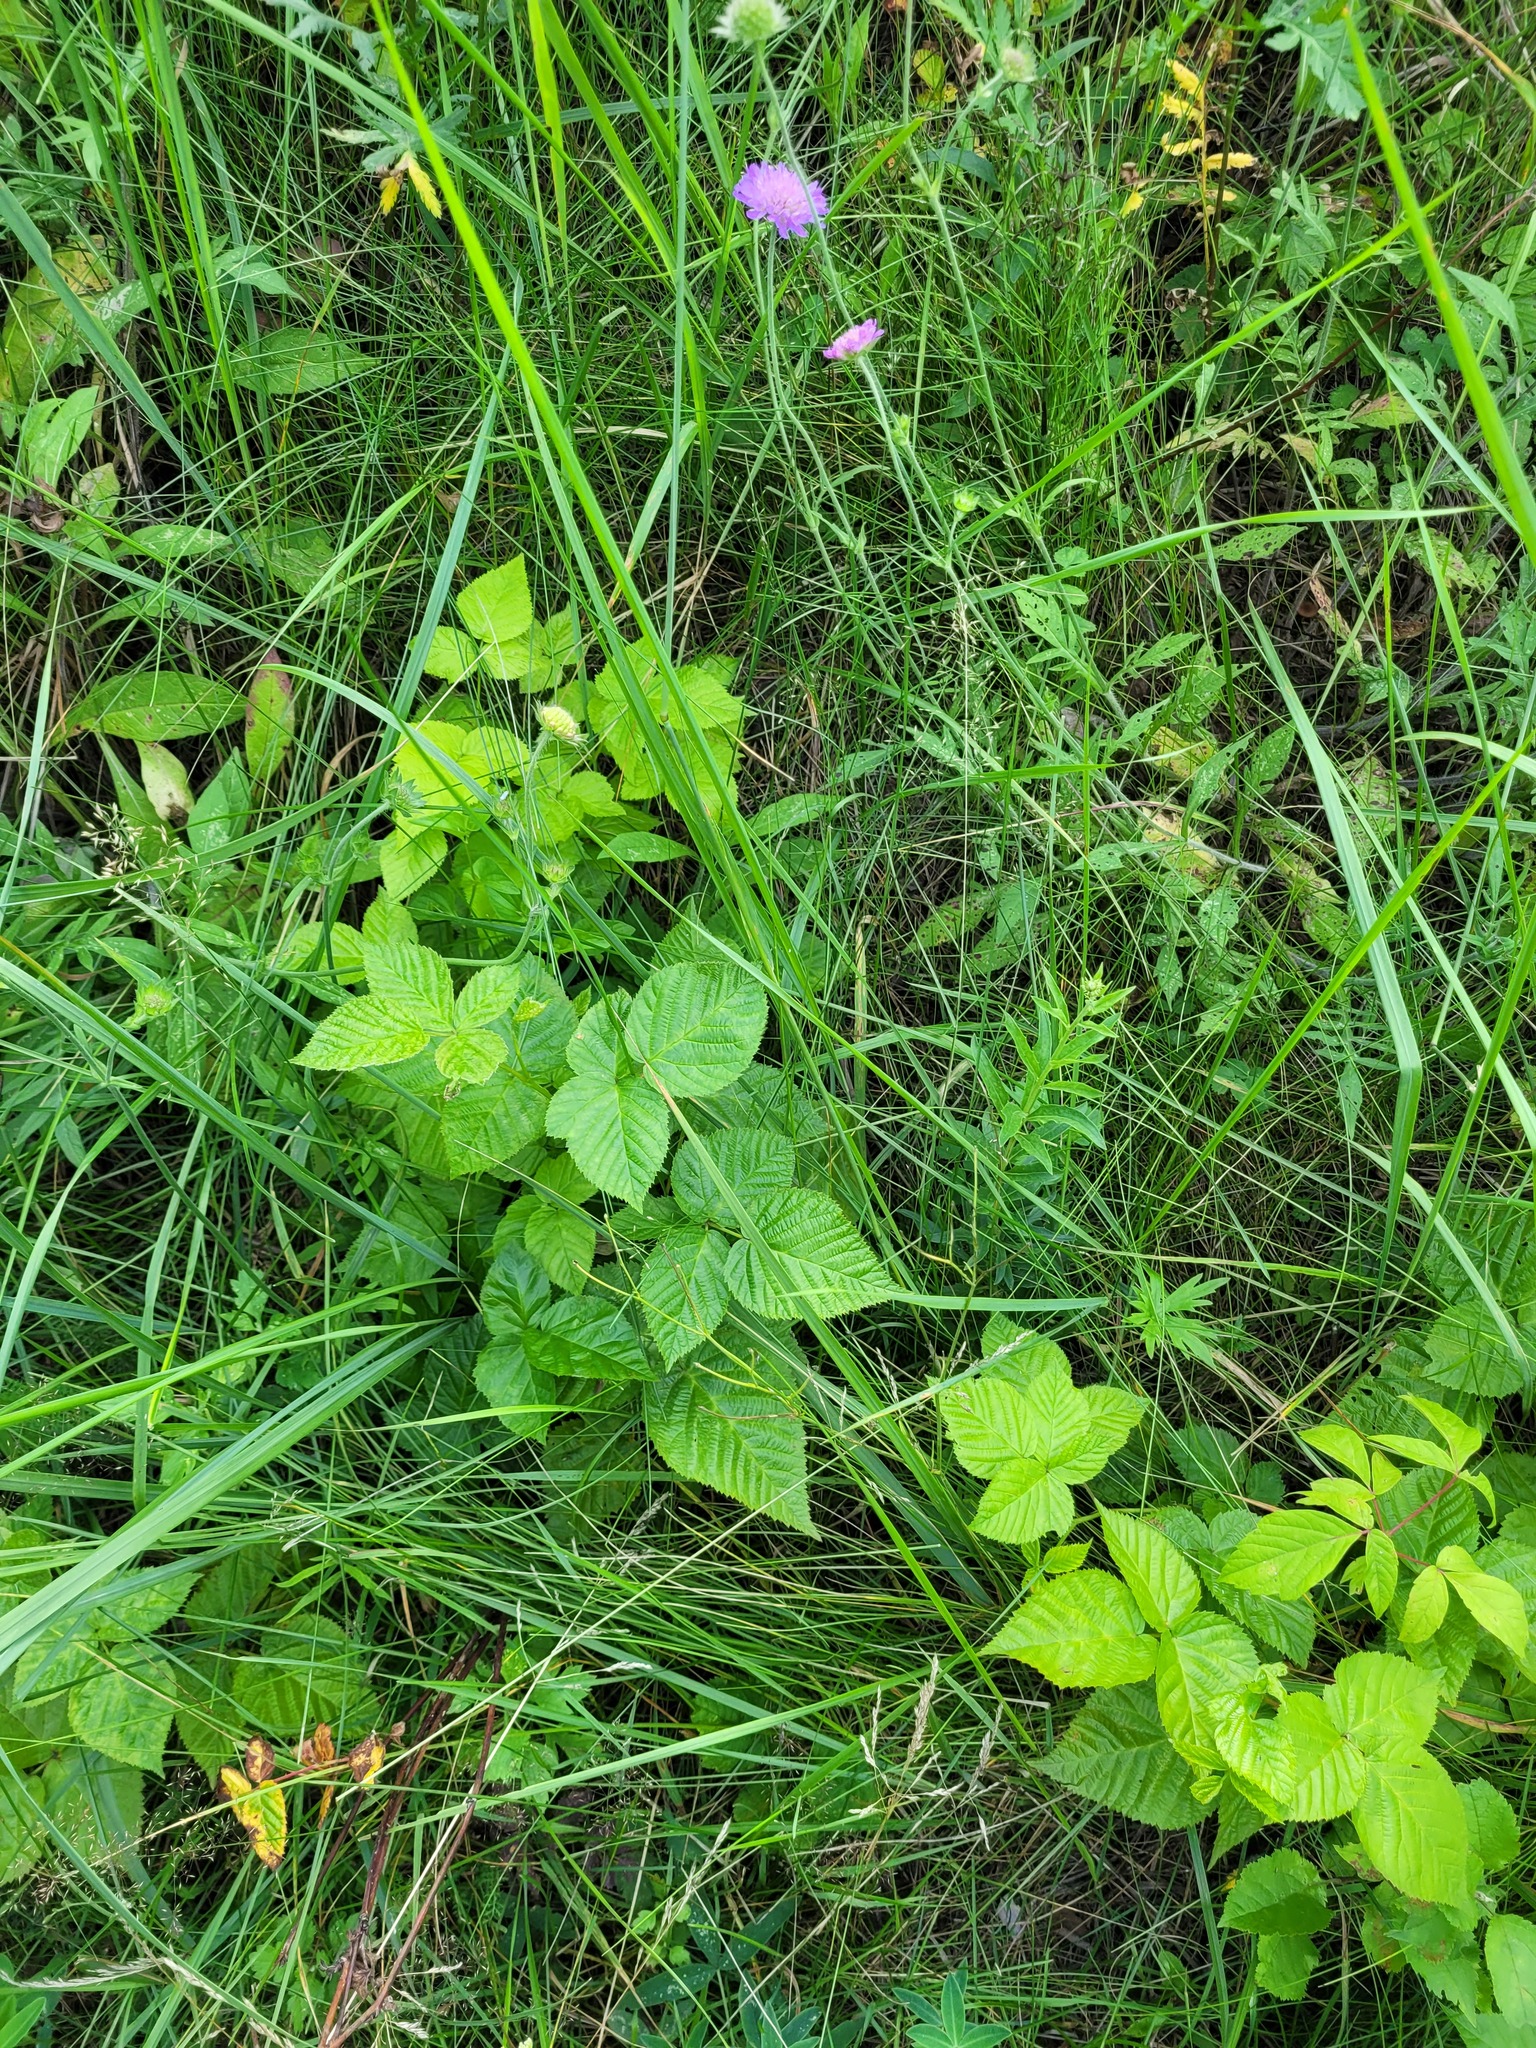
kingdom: Plantae
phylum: Tracheophyta
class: Magnoliopsida
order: Rosales
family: Rosaceae
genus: Rubus
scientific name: Rubus polonicus
